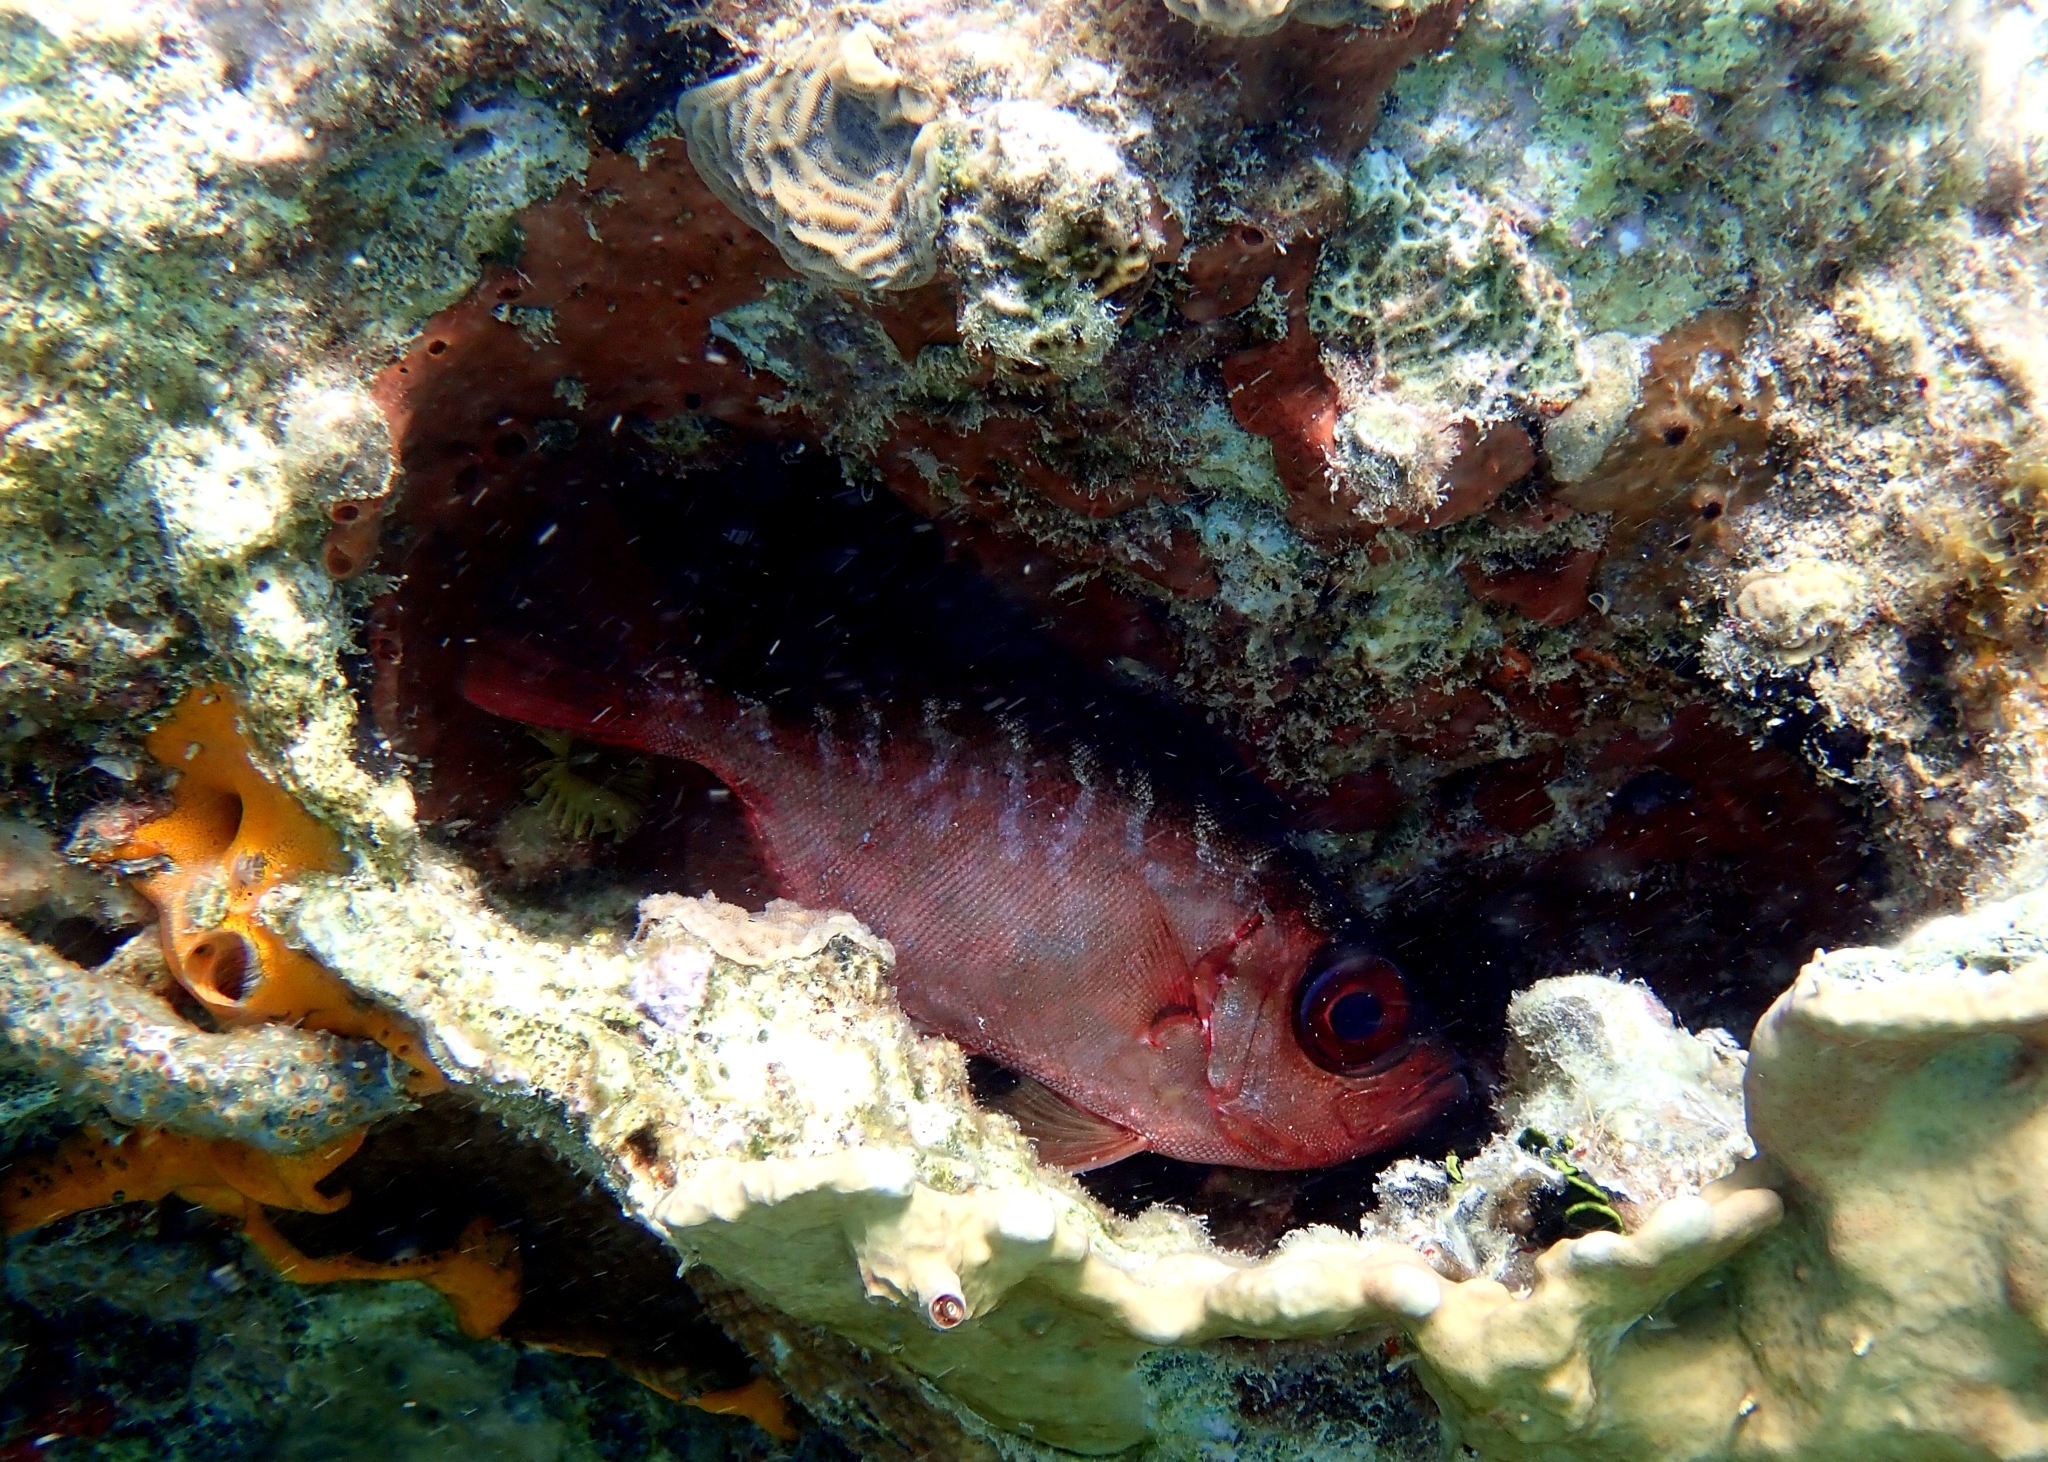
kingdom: Animalia
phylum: Chordata
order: Perciformes
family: Priacanthidae
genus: Heteropriacanthus
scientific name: Heteropriacanthus cruentatus
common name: Glasseye
